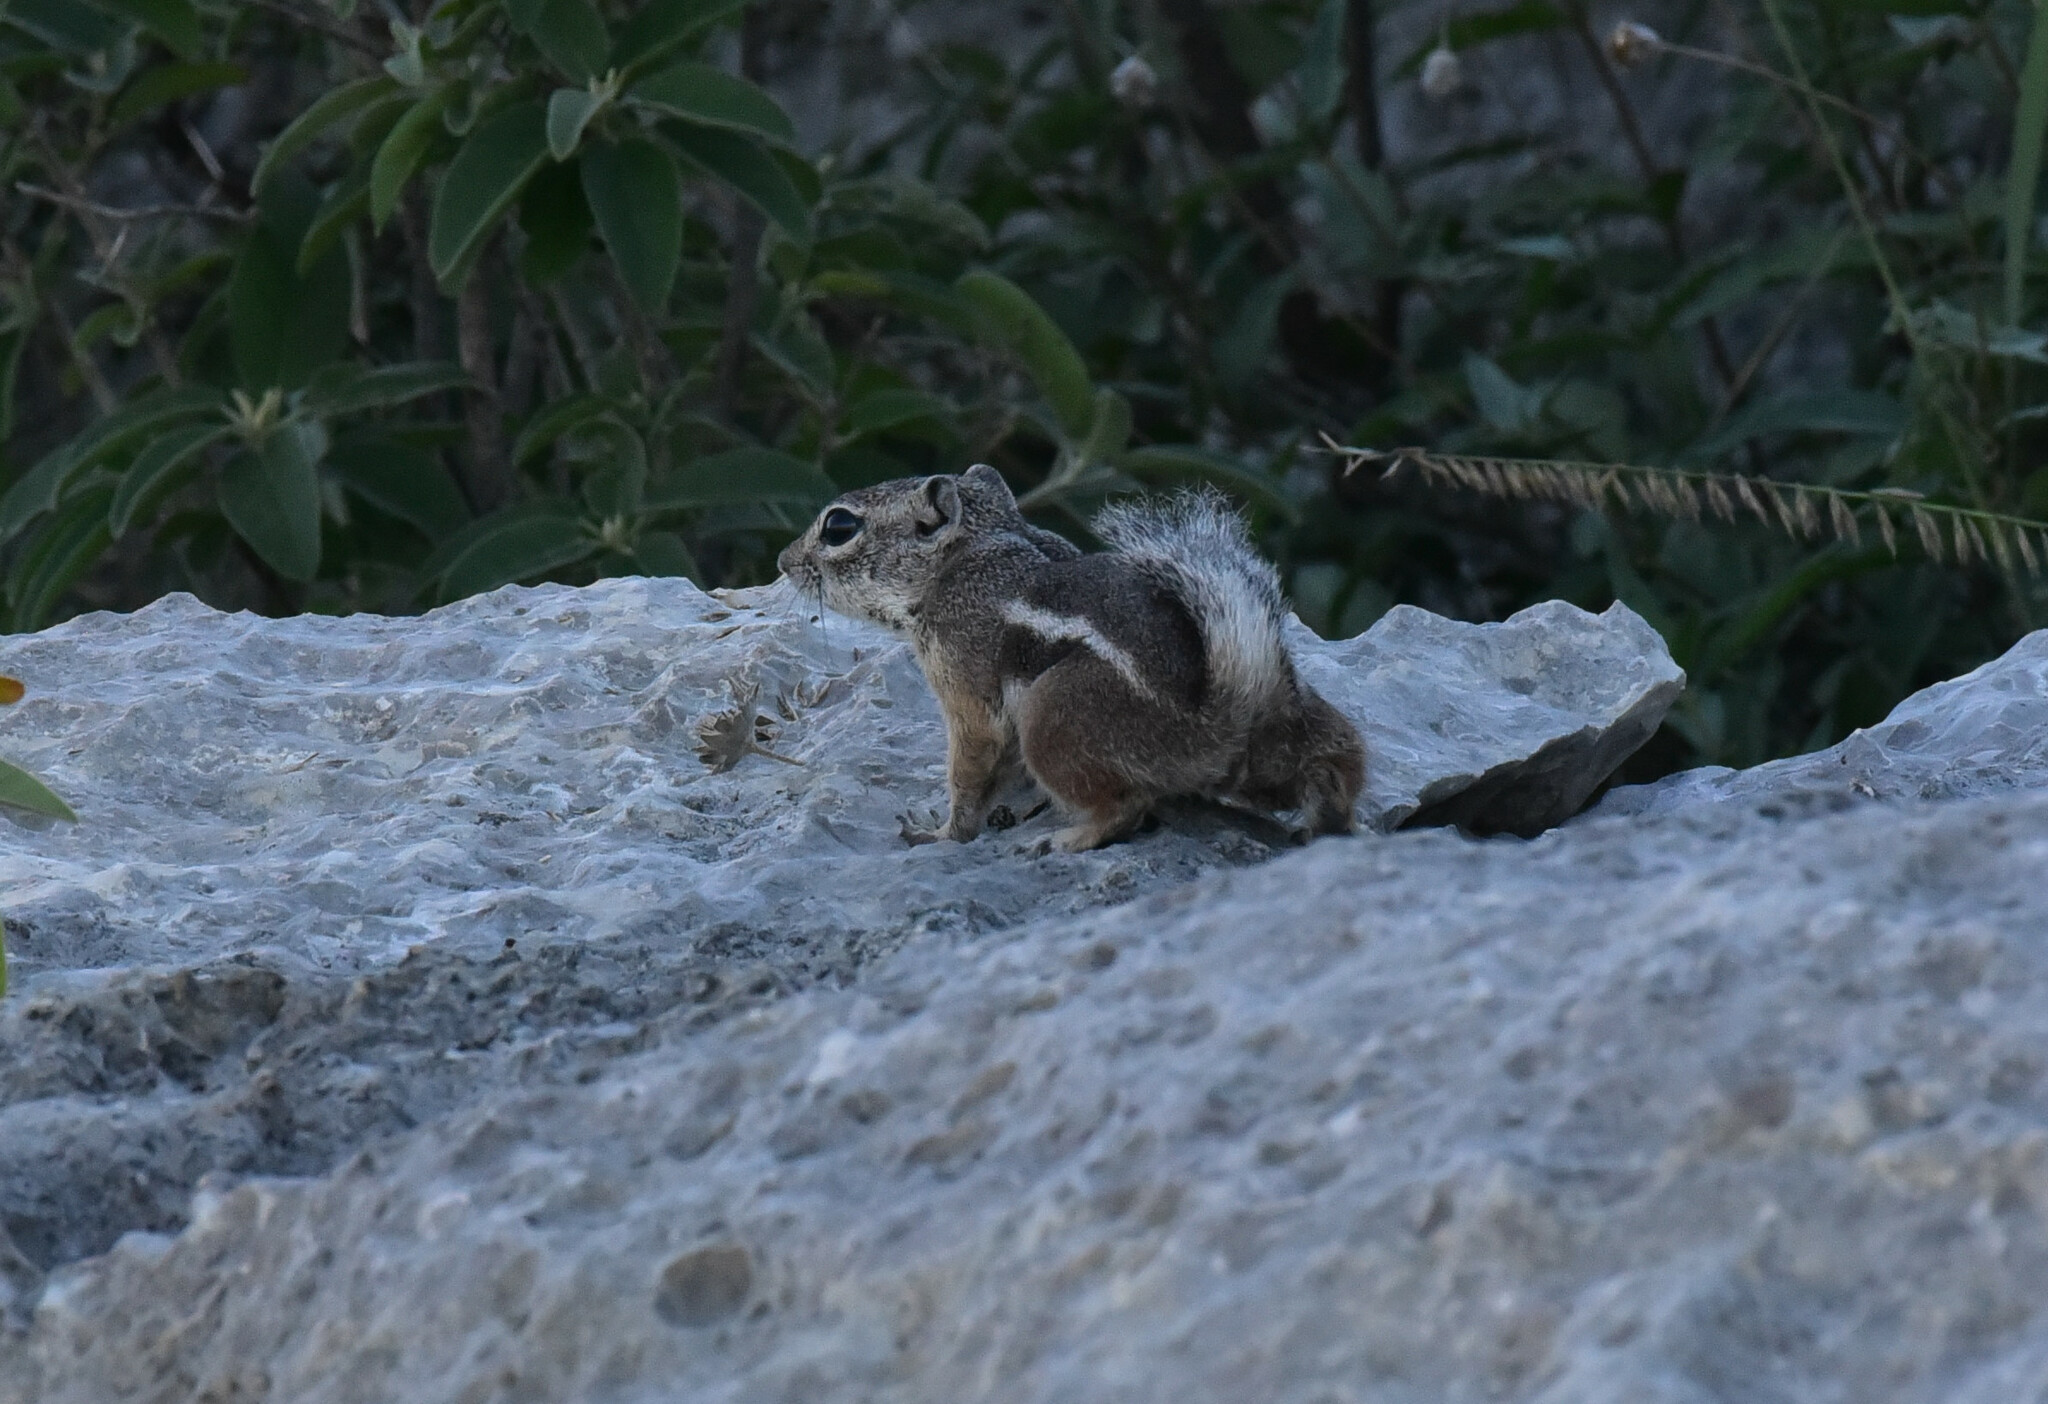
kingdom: Animalia
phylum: Chordata
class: Mammalia
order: Rodentia
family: Sciuridae
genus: Ammospermophilus
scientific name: Ammospermophilus interpres
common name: Texas antelope squirrel
